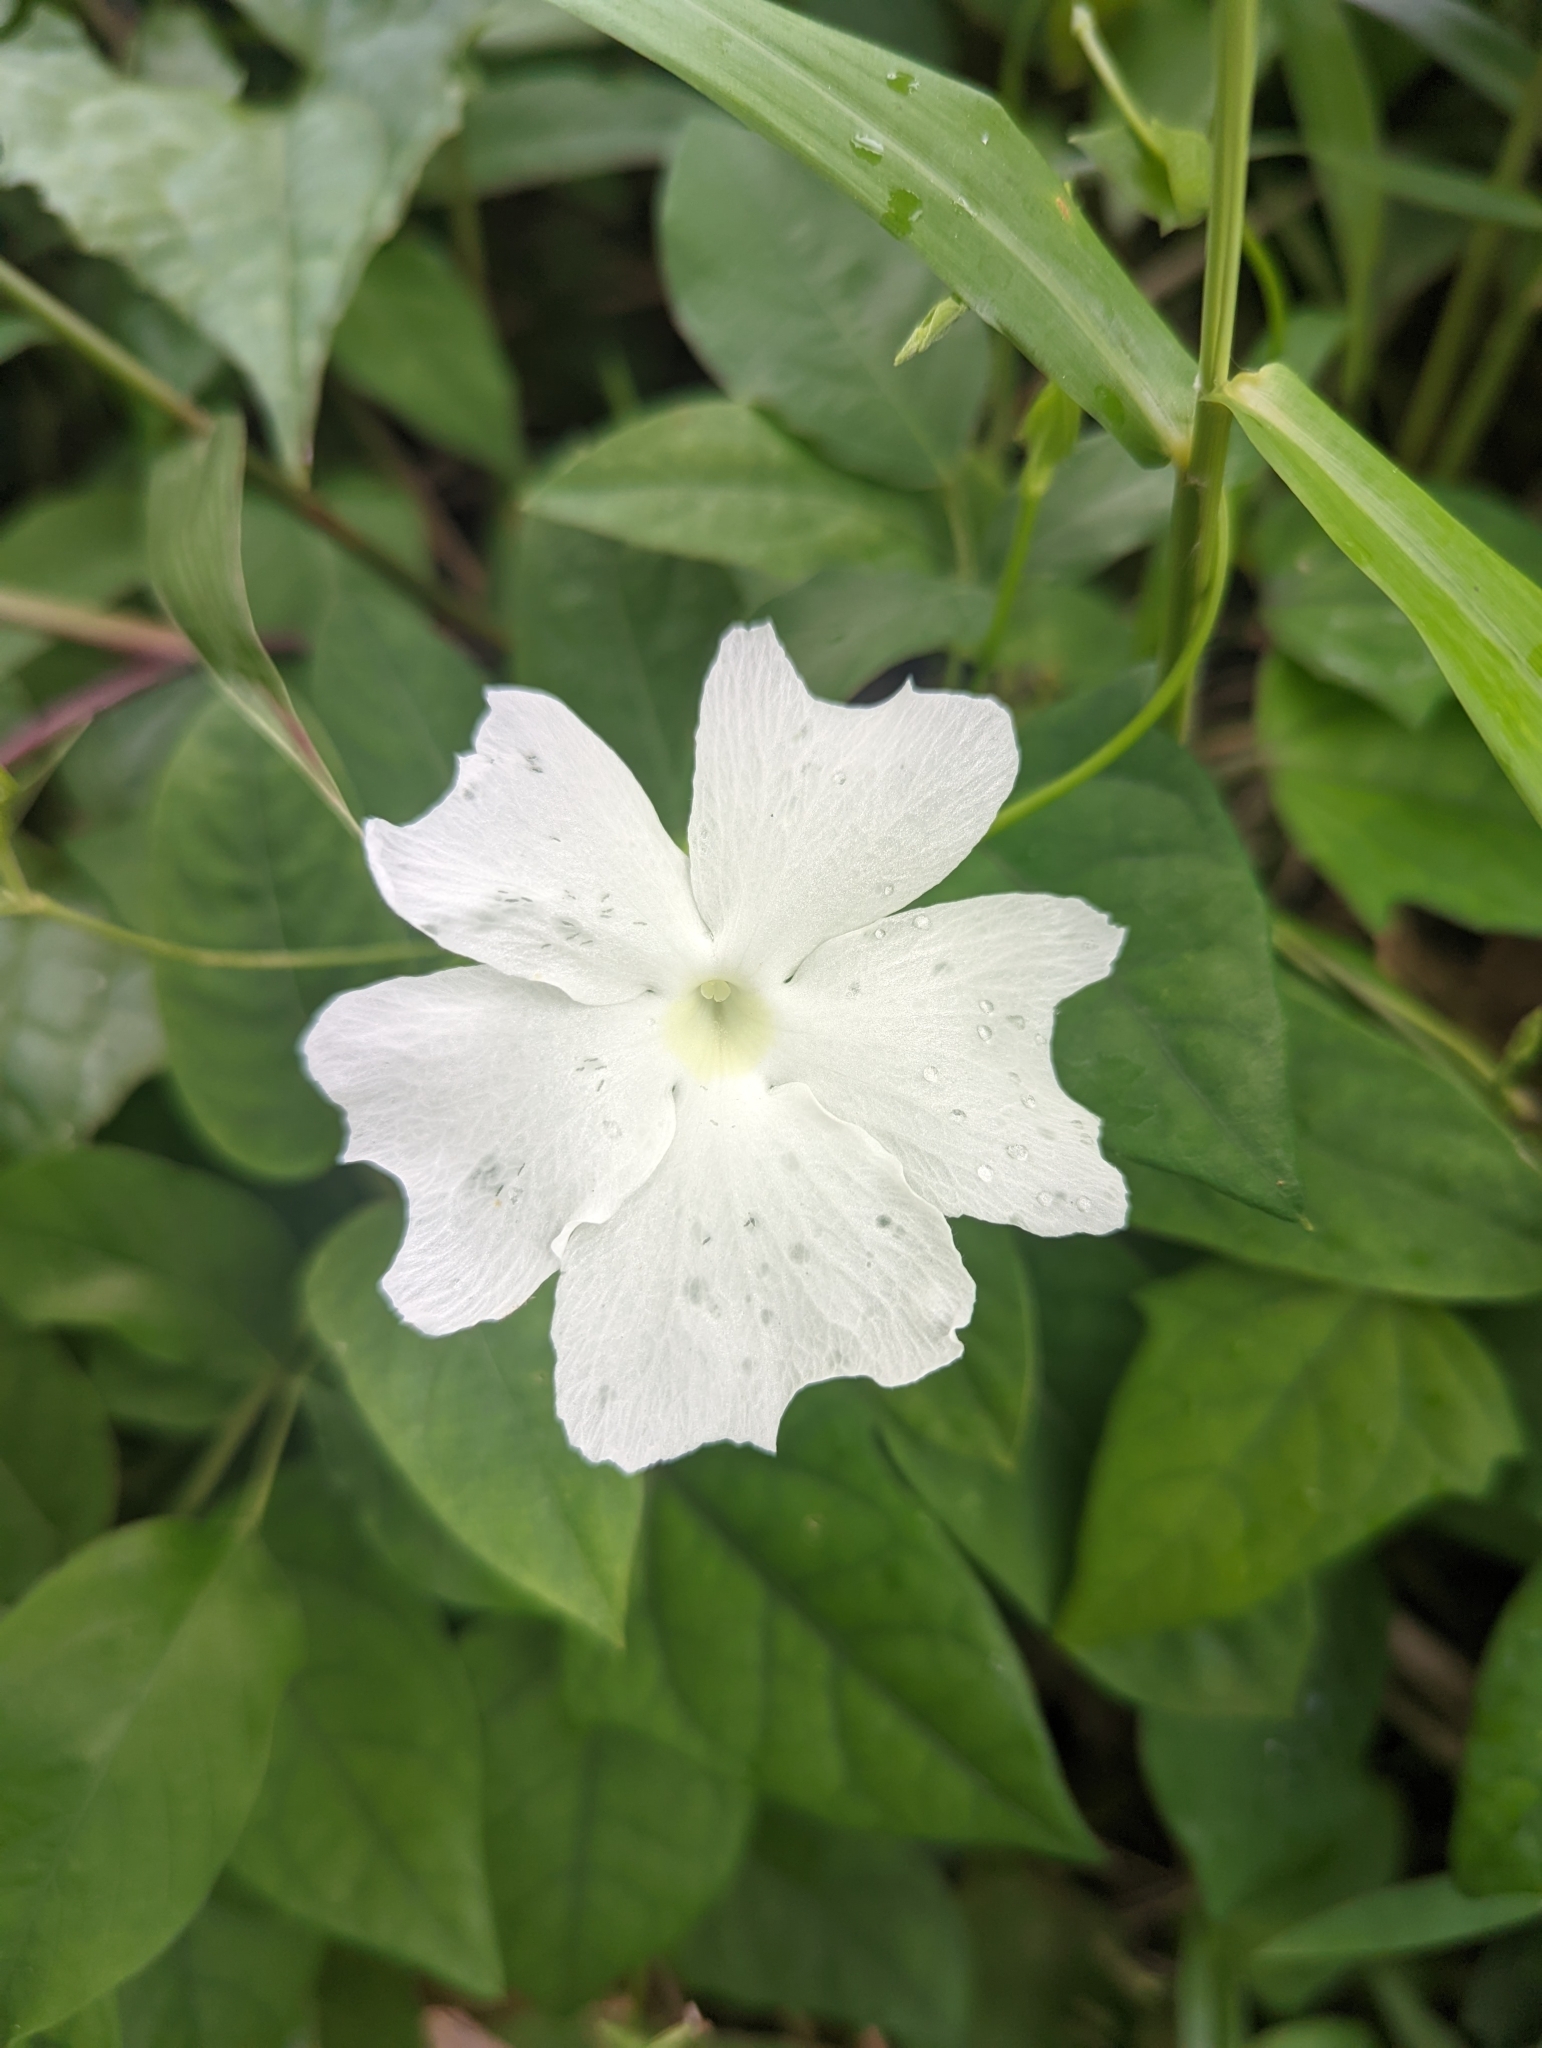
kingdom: Plantae
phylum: Tracheophyta
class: Magnoliopsida
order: Lamiales
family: Acanthaceae
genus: Thunbergia
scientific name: Thunbergia fragrans
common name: Whitelady
